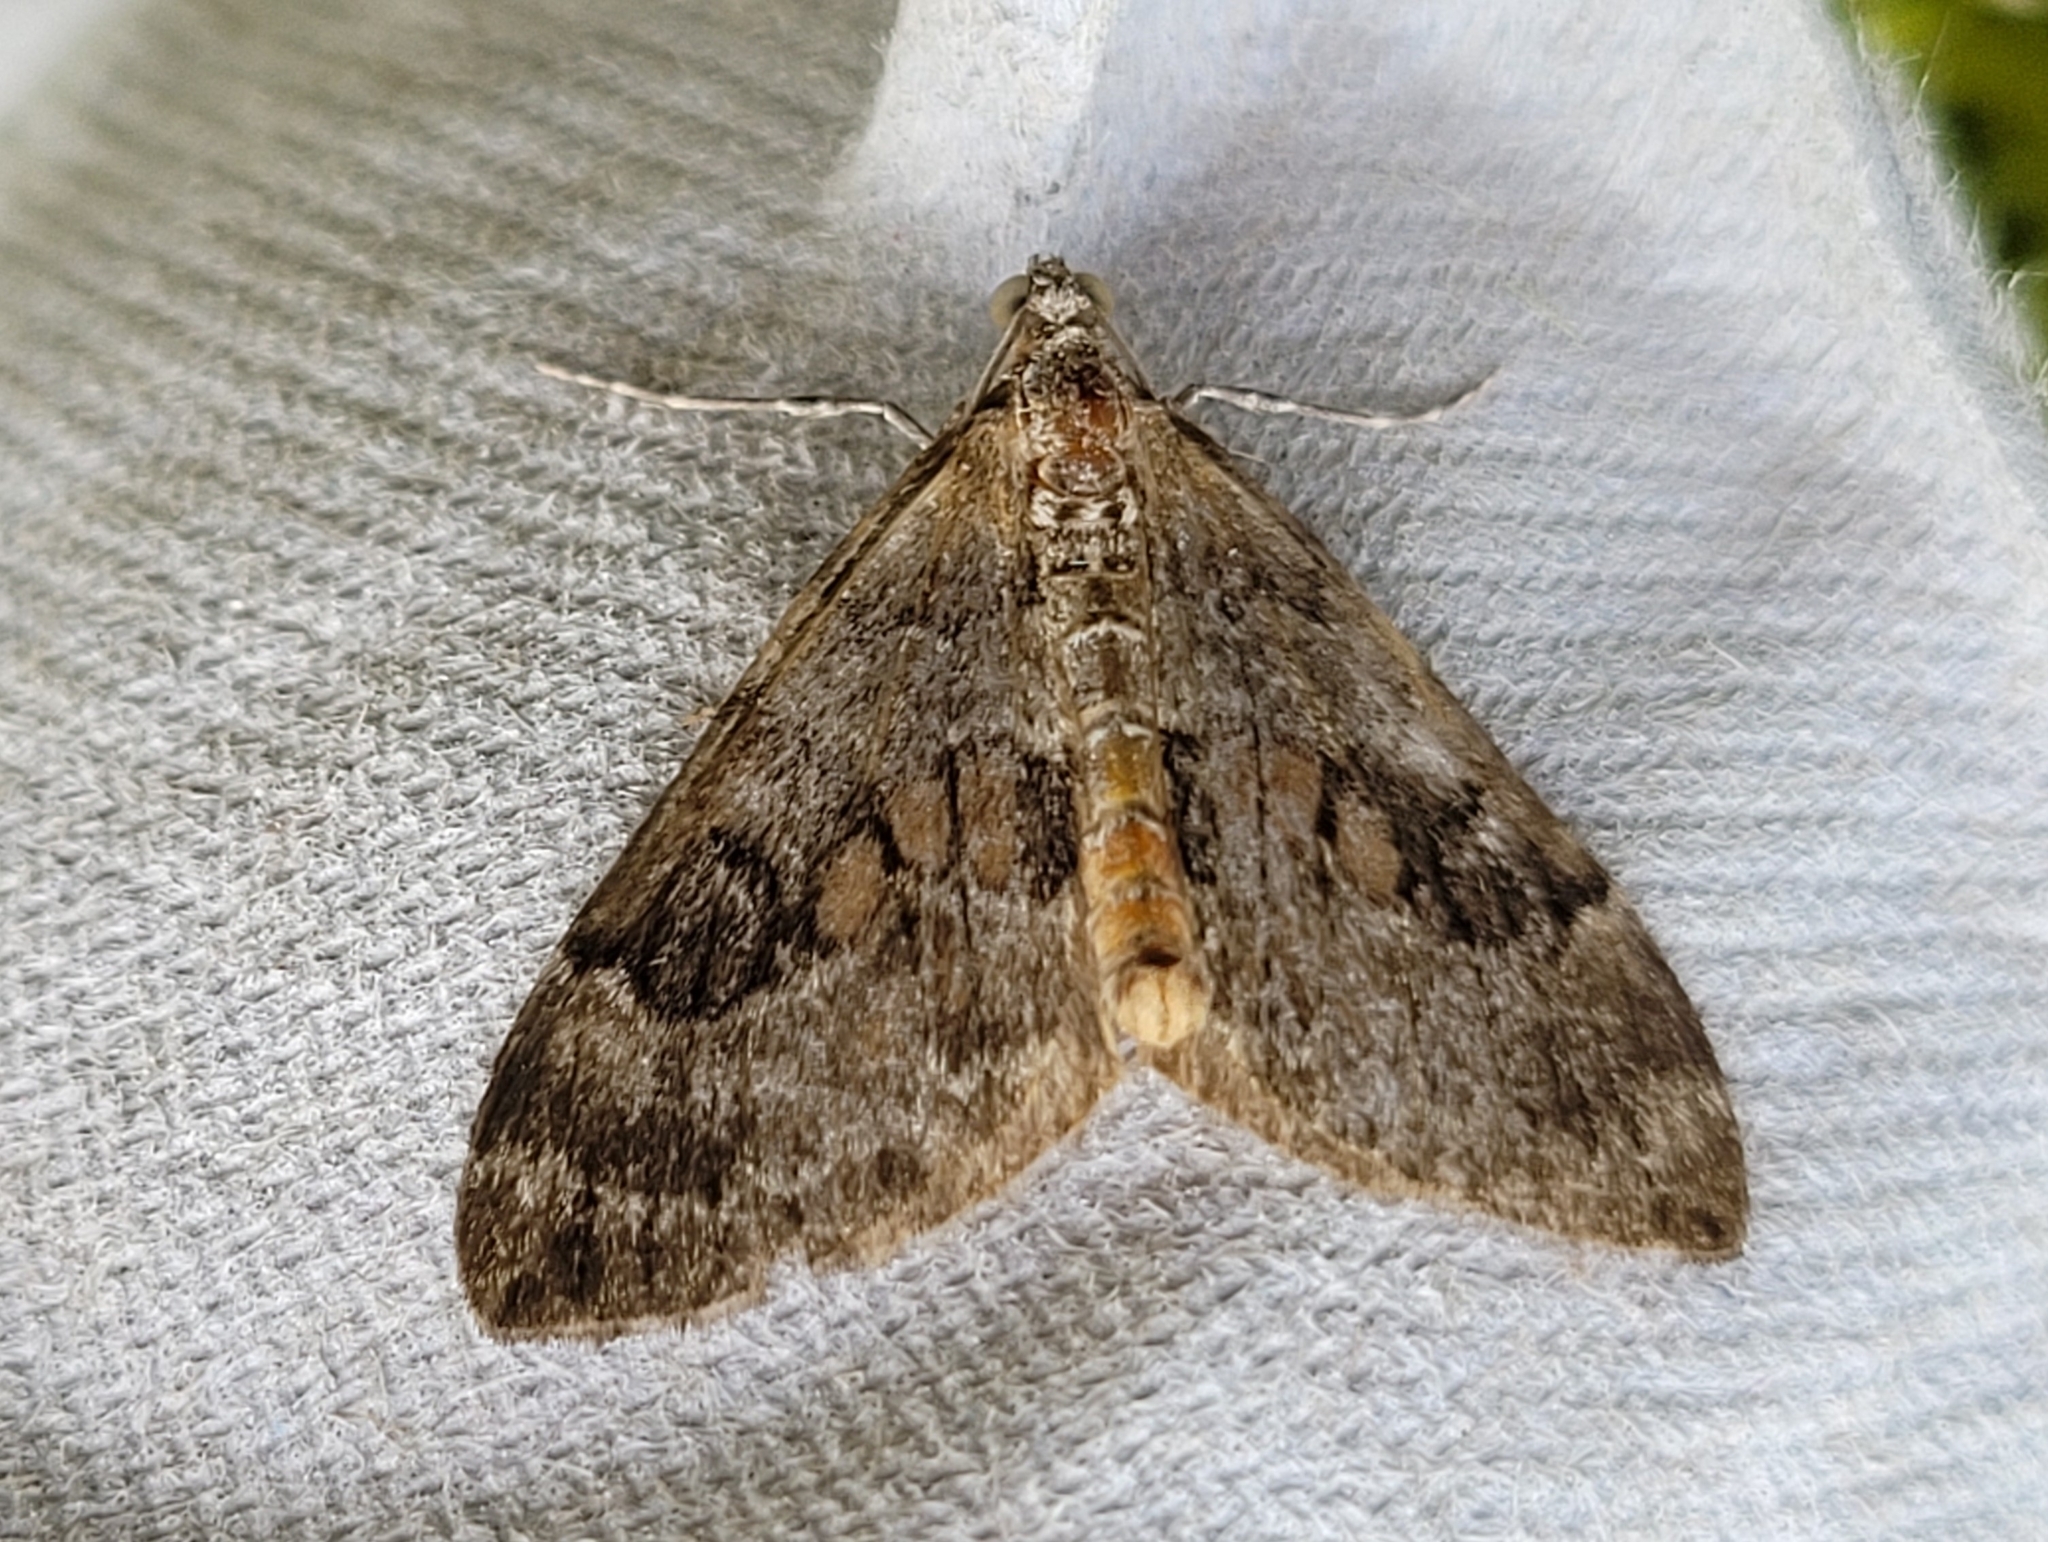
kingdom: Animalia
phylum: Arthropoda
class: Insecta
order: Lepidoptera
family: Geometridae
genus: Thera
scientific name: Thera britannica
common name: Spruce carpet
